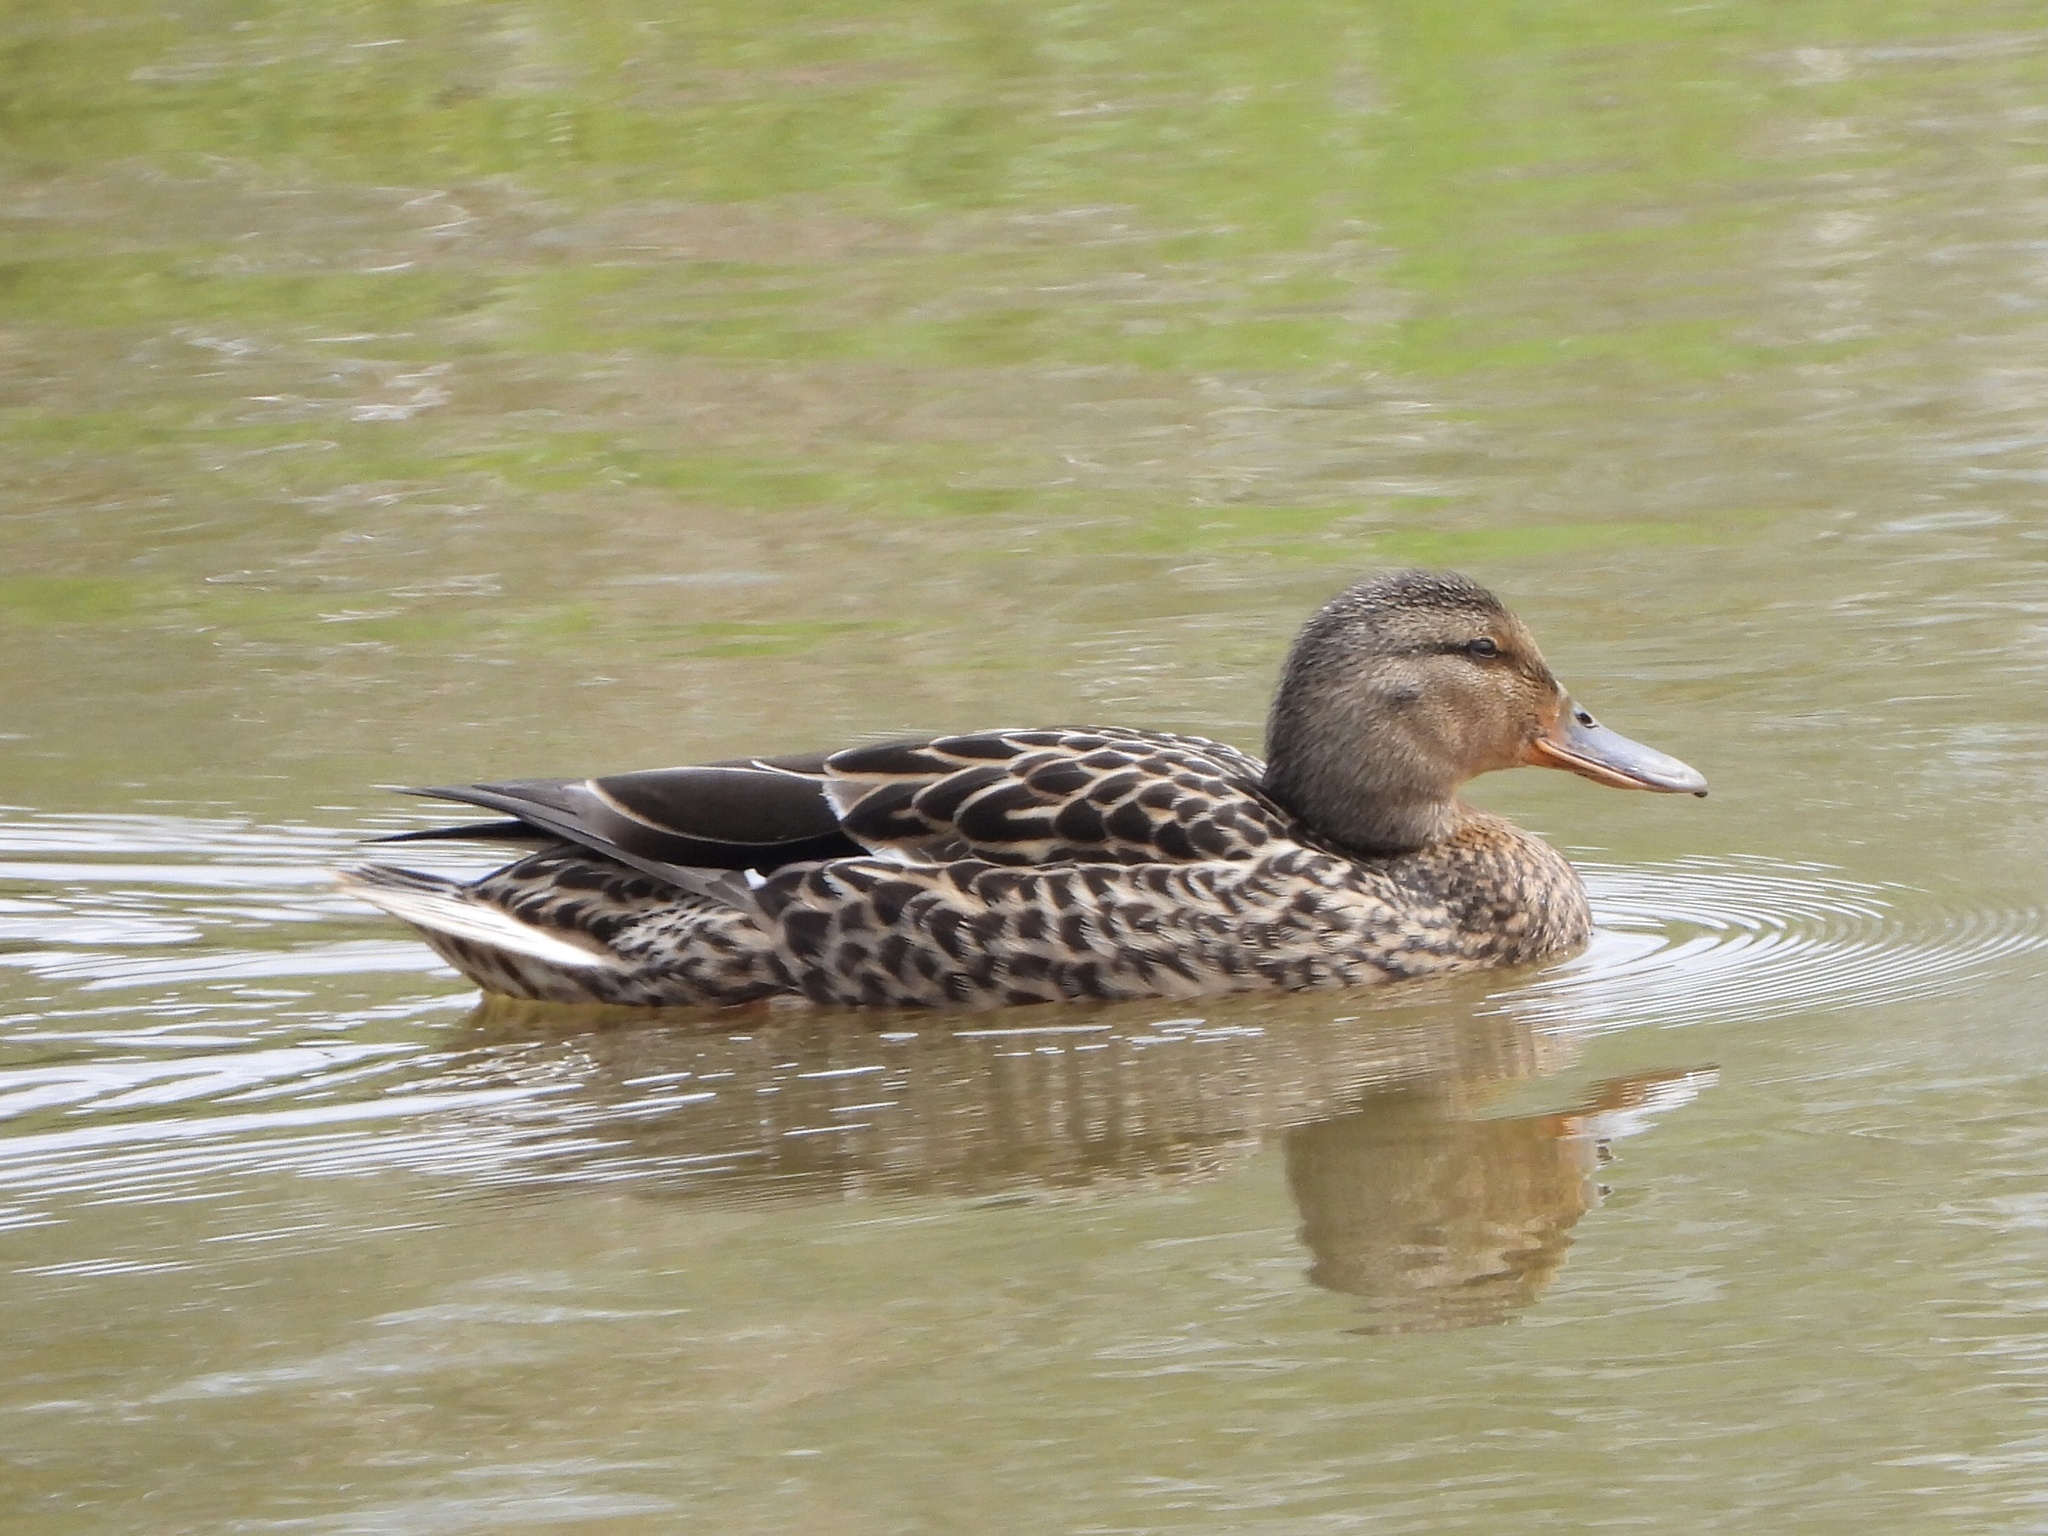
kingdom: Animalia
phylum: Chordata
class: Aves
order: Anseriformes
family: Anatidae
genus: Anas
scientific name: Anas platyrhynchos
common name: Mallard
